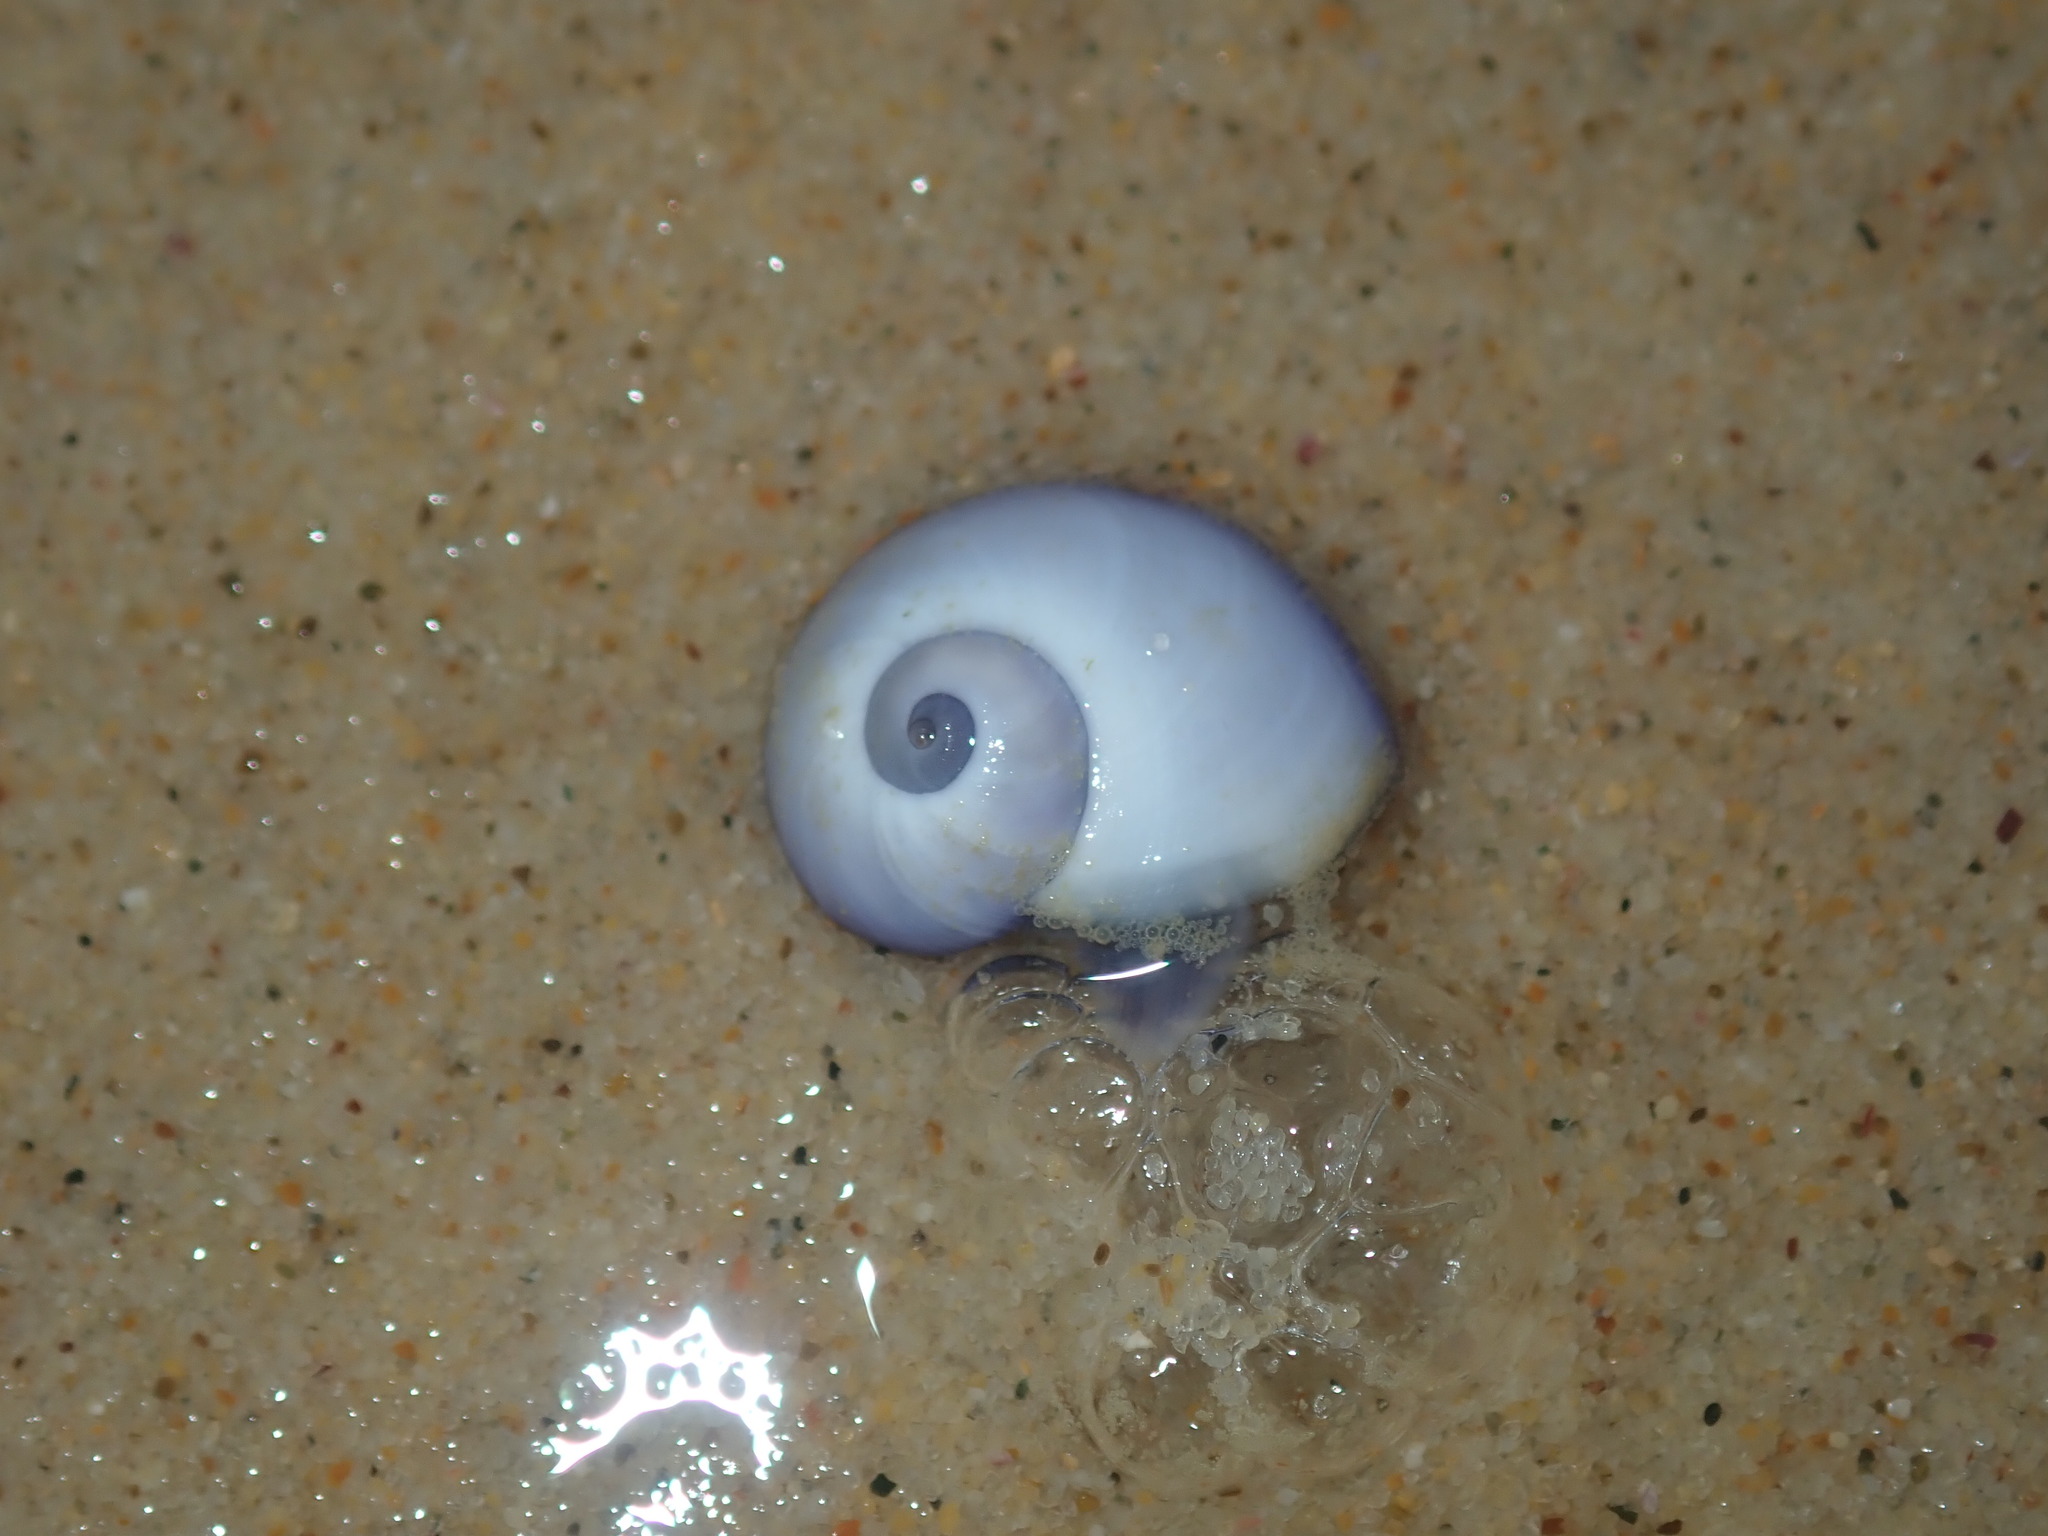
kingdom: Animalia
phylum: Mollusca
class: Gastropoda
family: Epitoniidae
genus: Janthina
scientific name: Janthina janthina
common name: Common janthina
